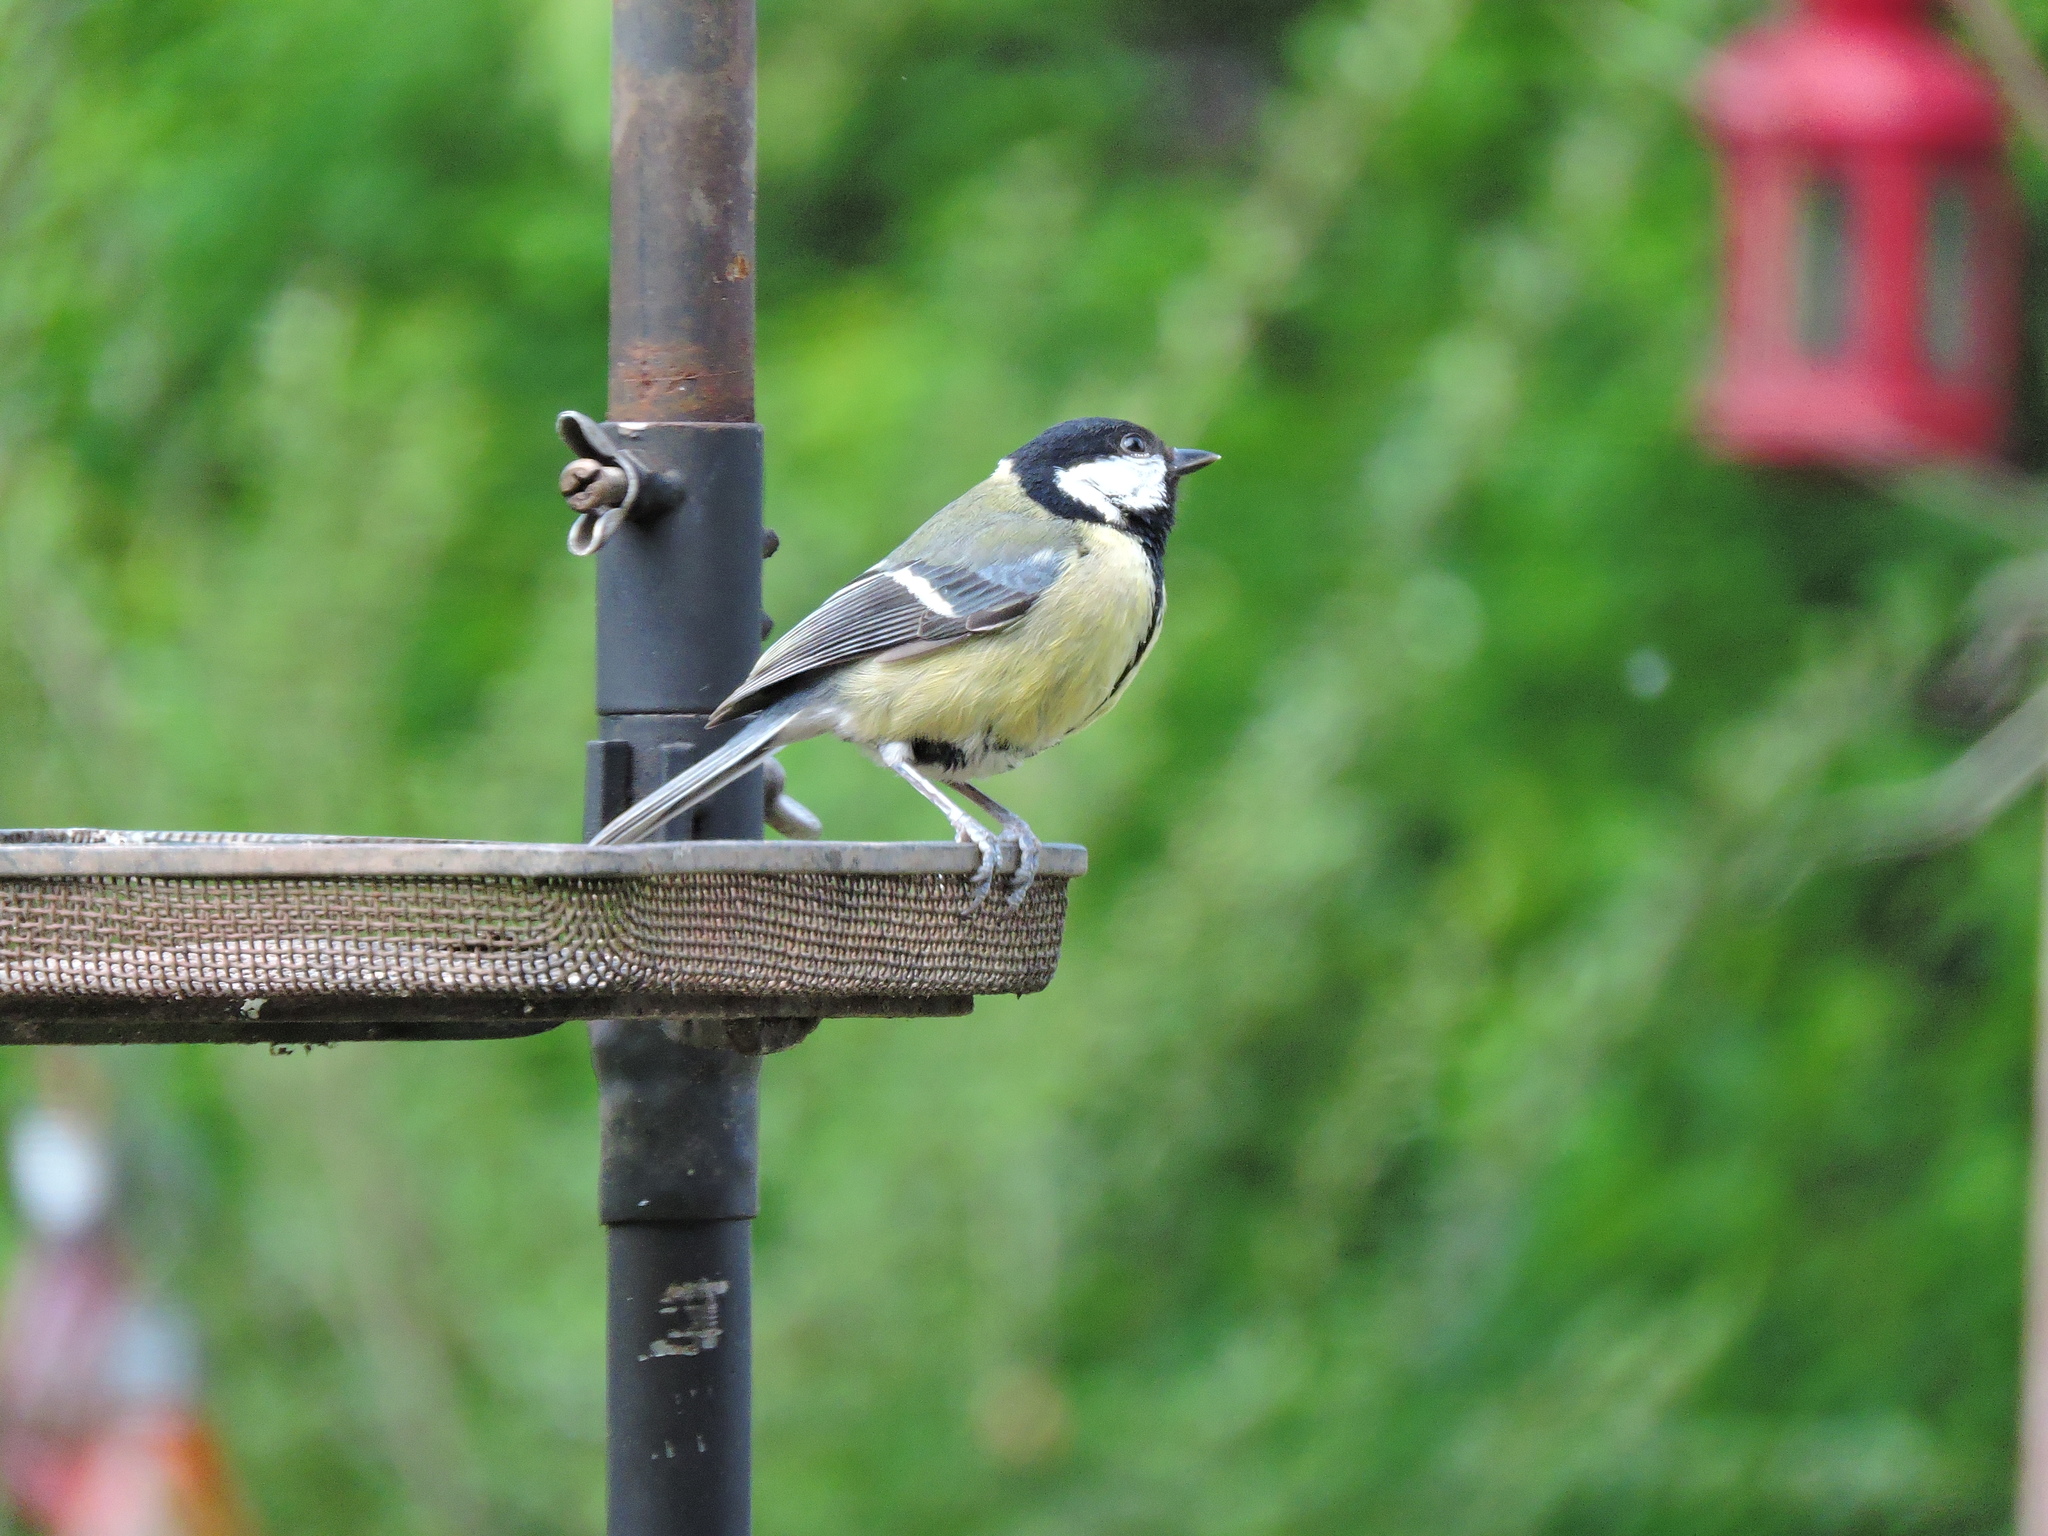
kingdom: Animalia
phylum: Chordata
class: Aves
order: Passeriformes
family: Paridae
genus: Parus
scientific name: Parus major
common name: Great tit
